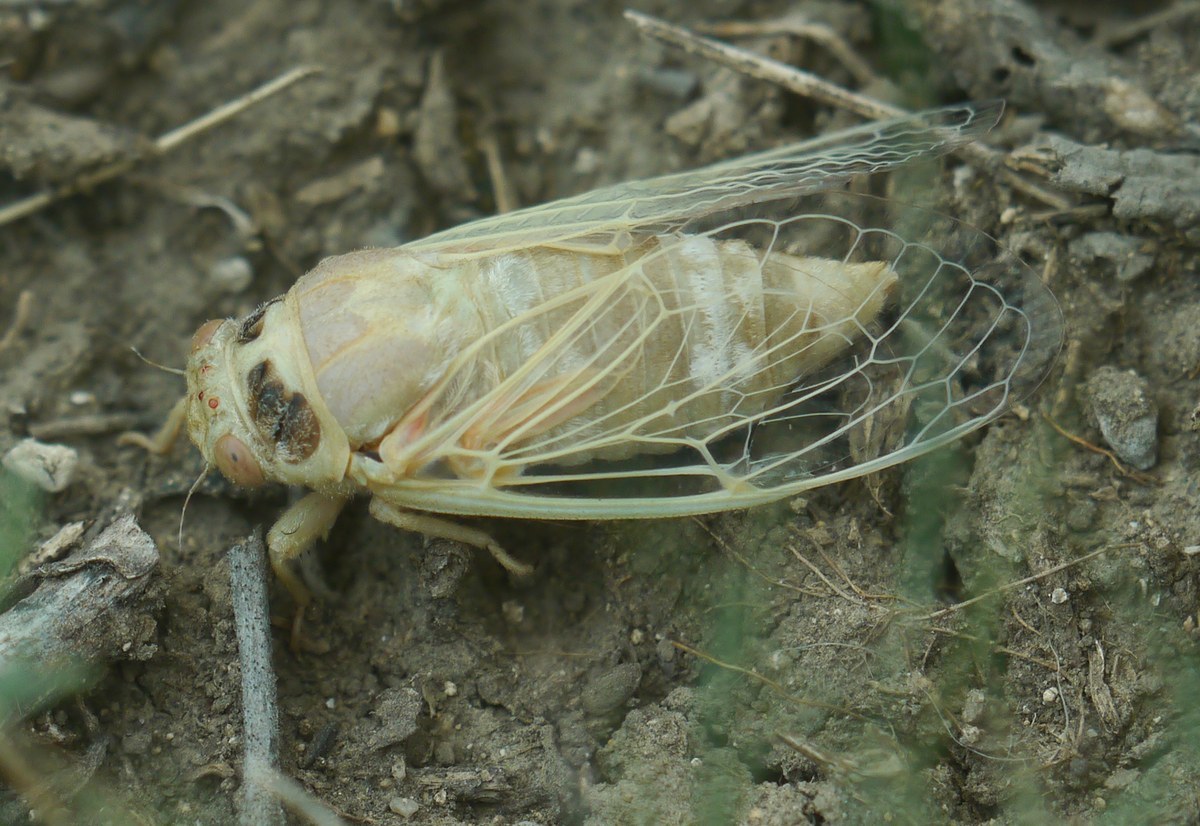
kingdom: Animalia
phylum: Arthropoda
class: Insecta
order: Hemiptera
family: Cicadidae
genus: Cicadatra
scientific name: Cicadatra platyptera
